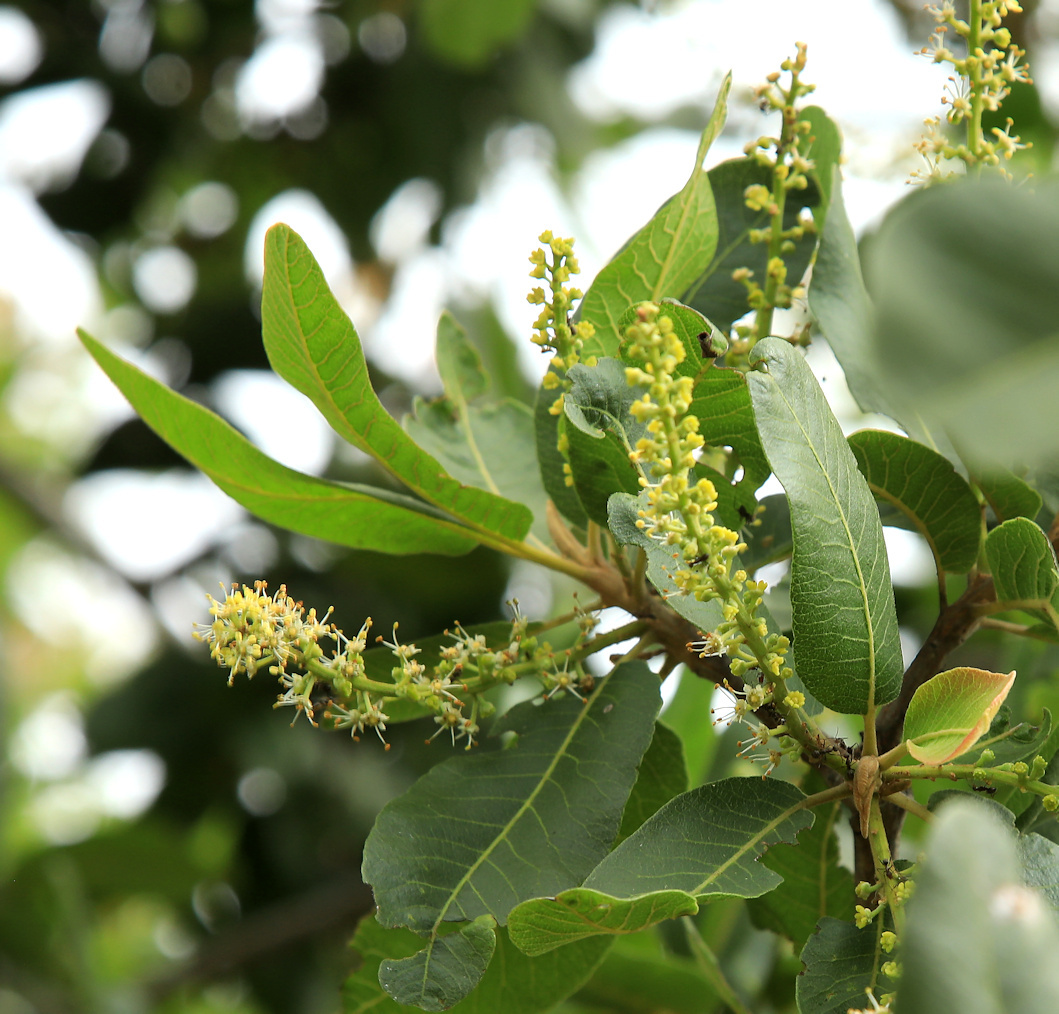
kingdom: Plantae
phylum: Tracheophyta
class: Magnoliopsida
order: Sapindales
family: Sapindaceae
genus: Pappea
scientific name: Pappea capensis
